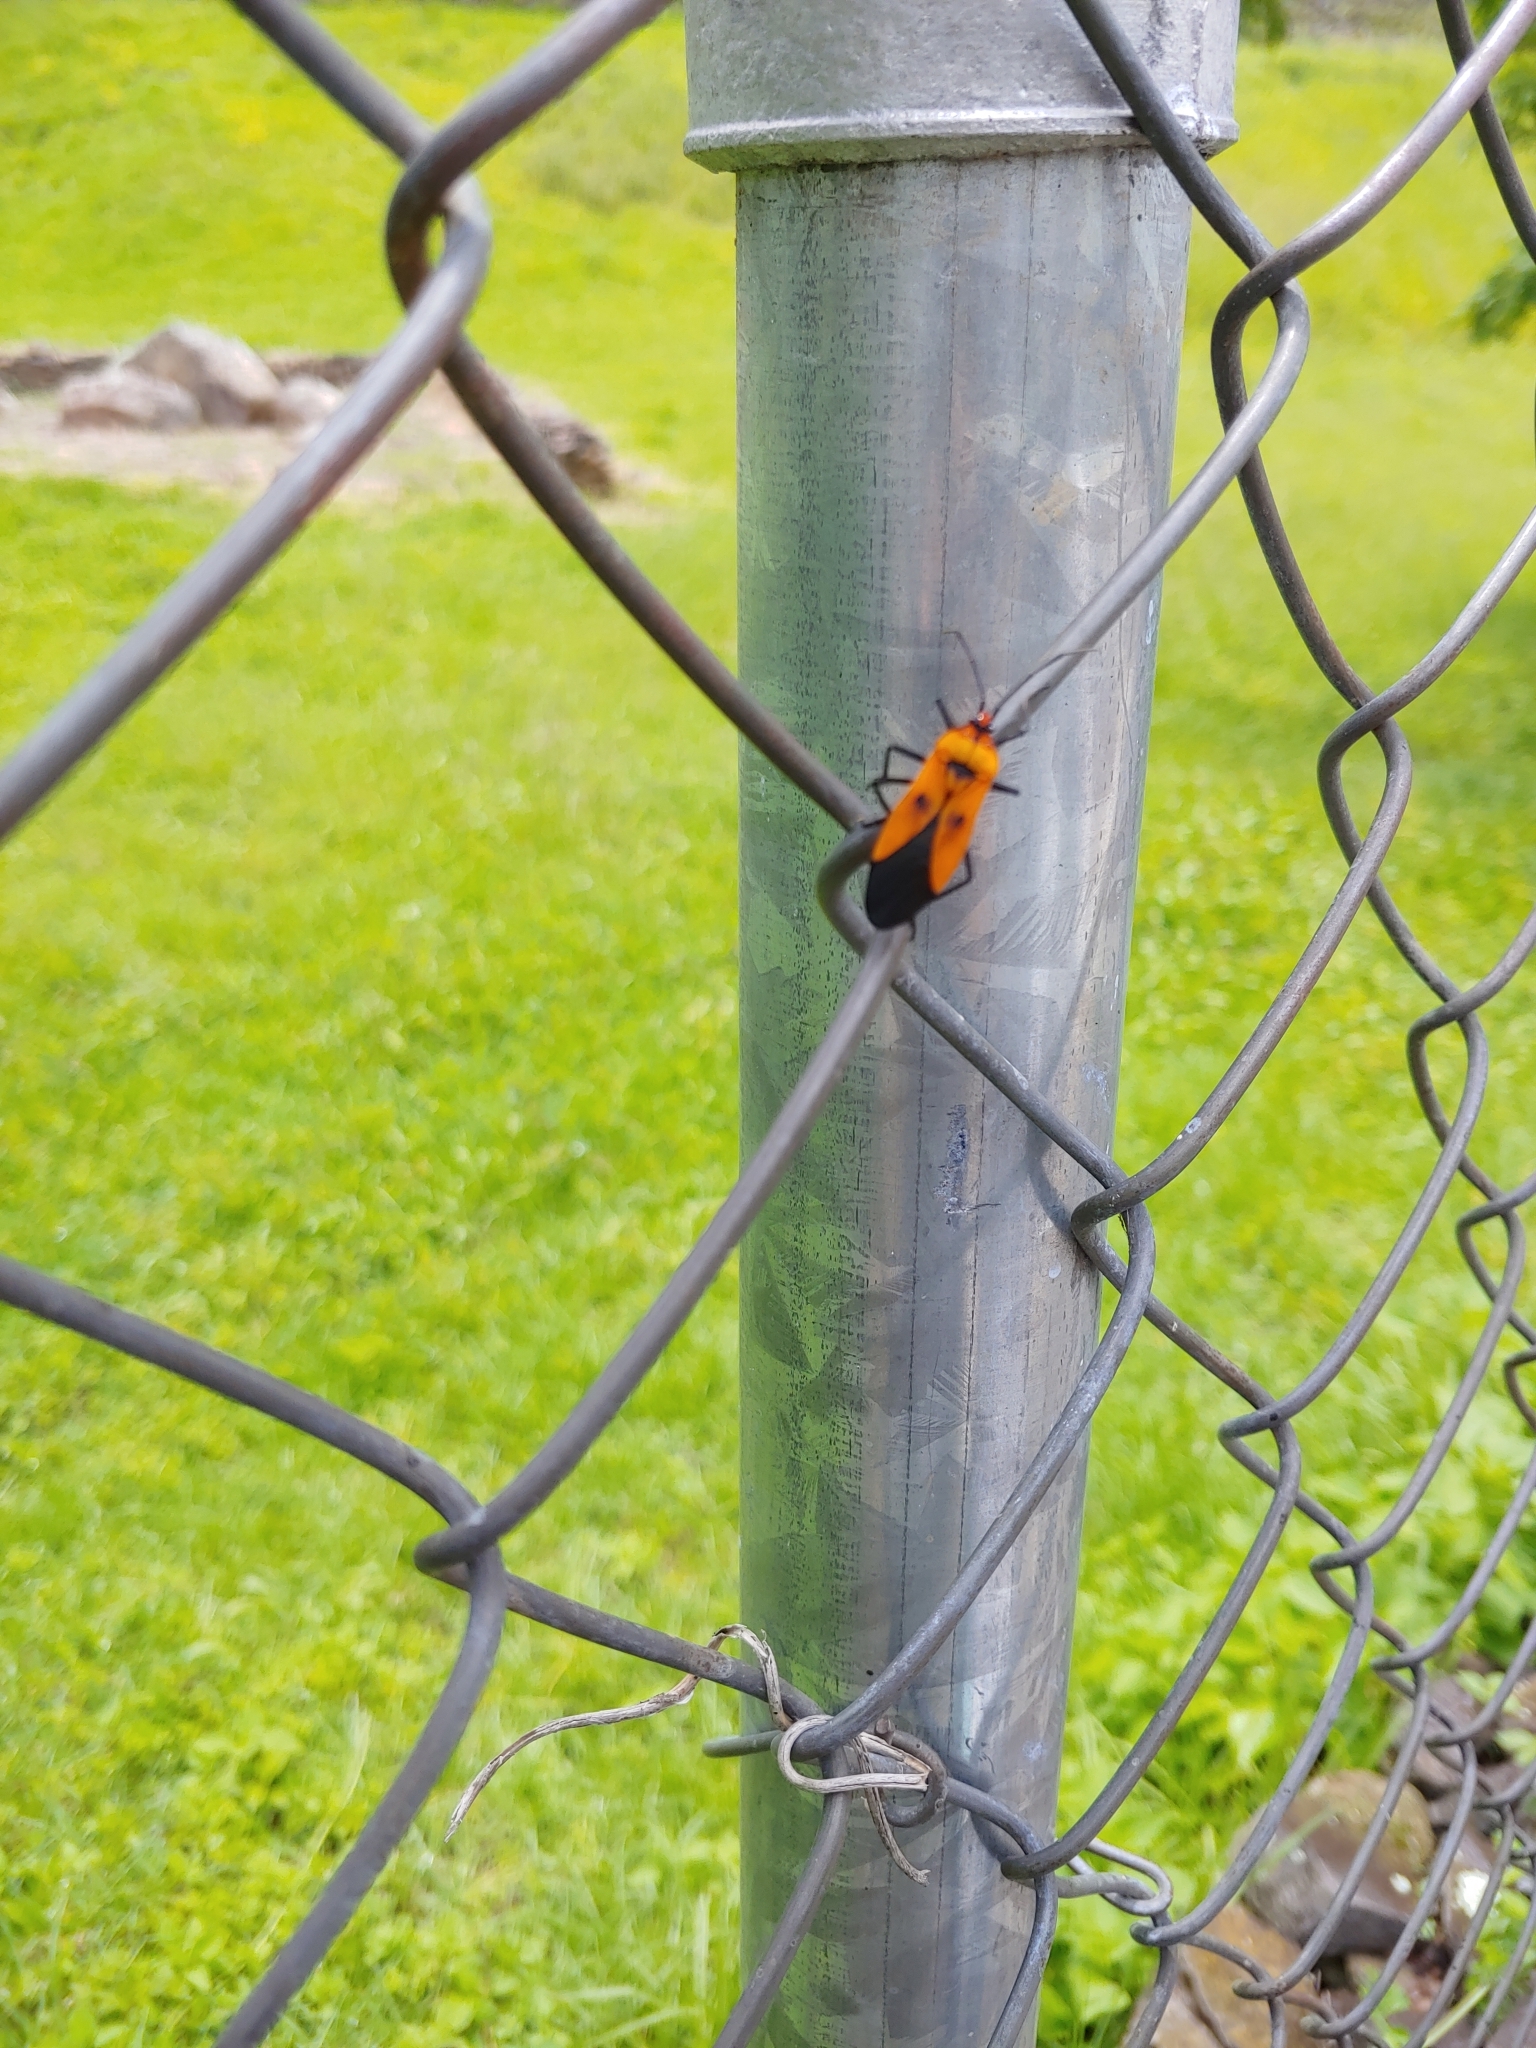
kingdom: Animalia
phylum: Arthropoda
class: Insecta
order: Hemiptera
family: Lygaeidae
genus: Oncopeltus
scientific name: Oncopeltus varicolor
